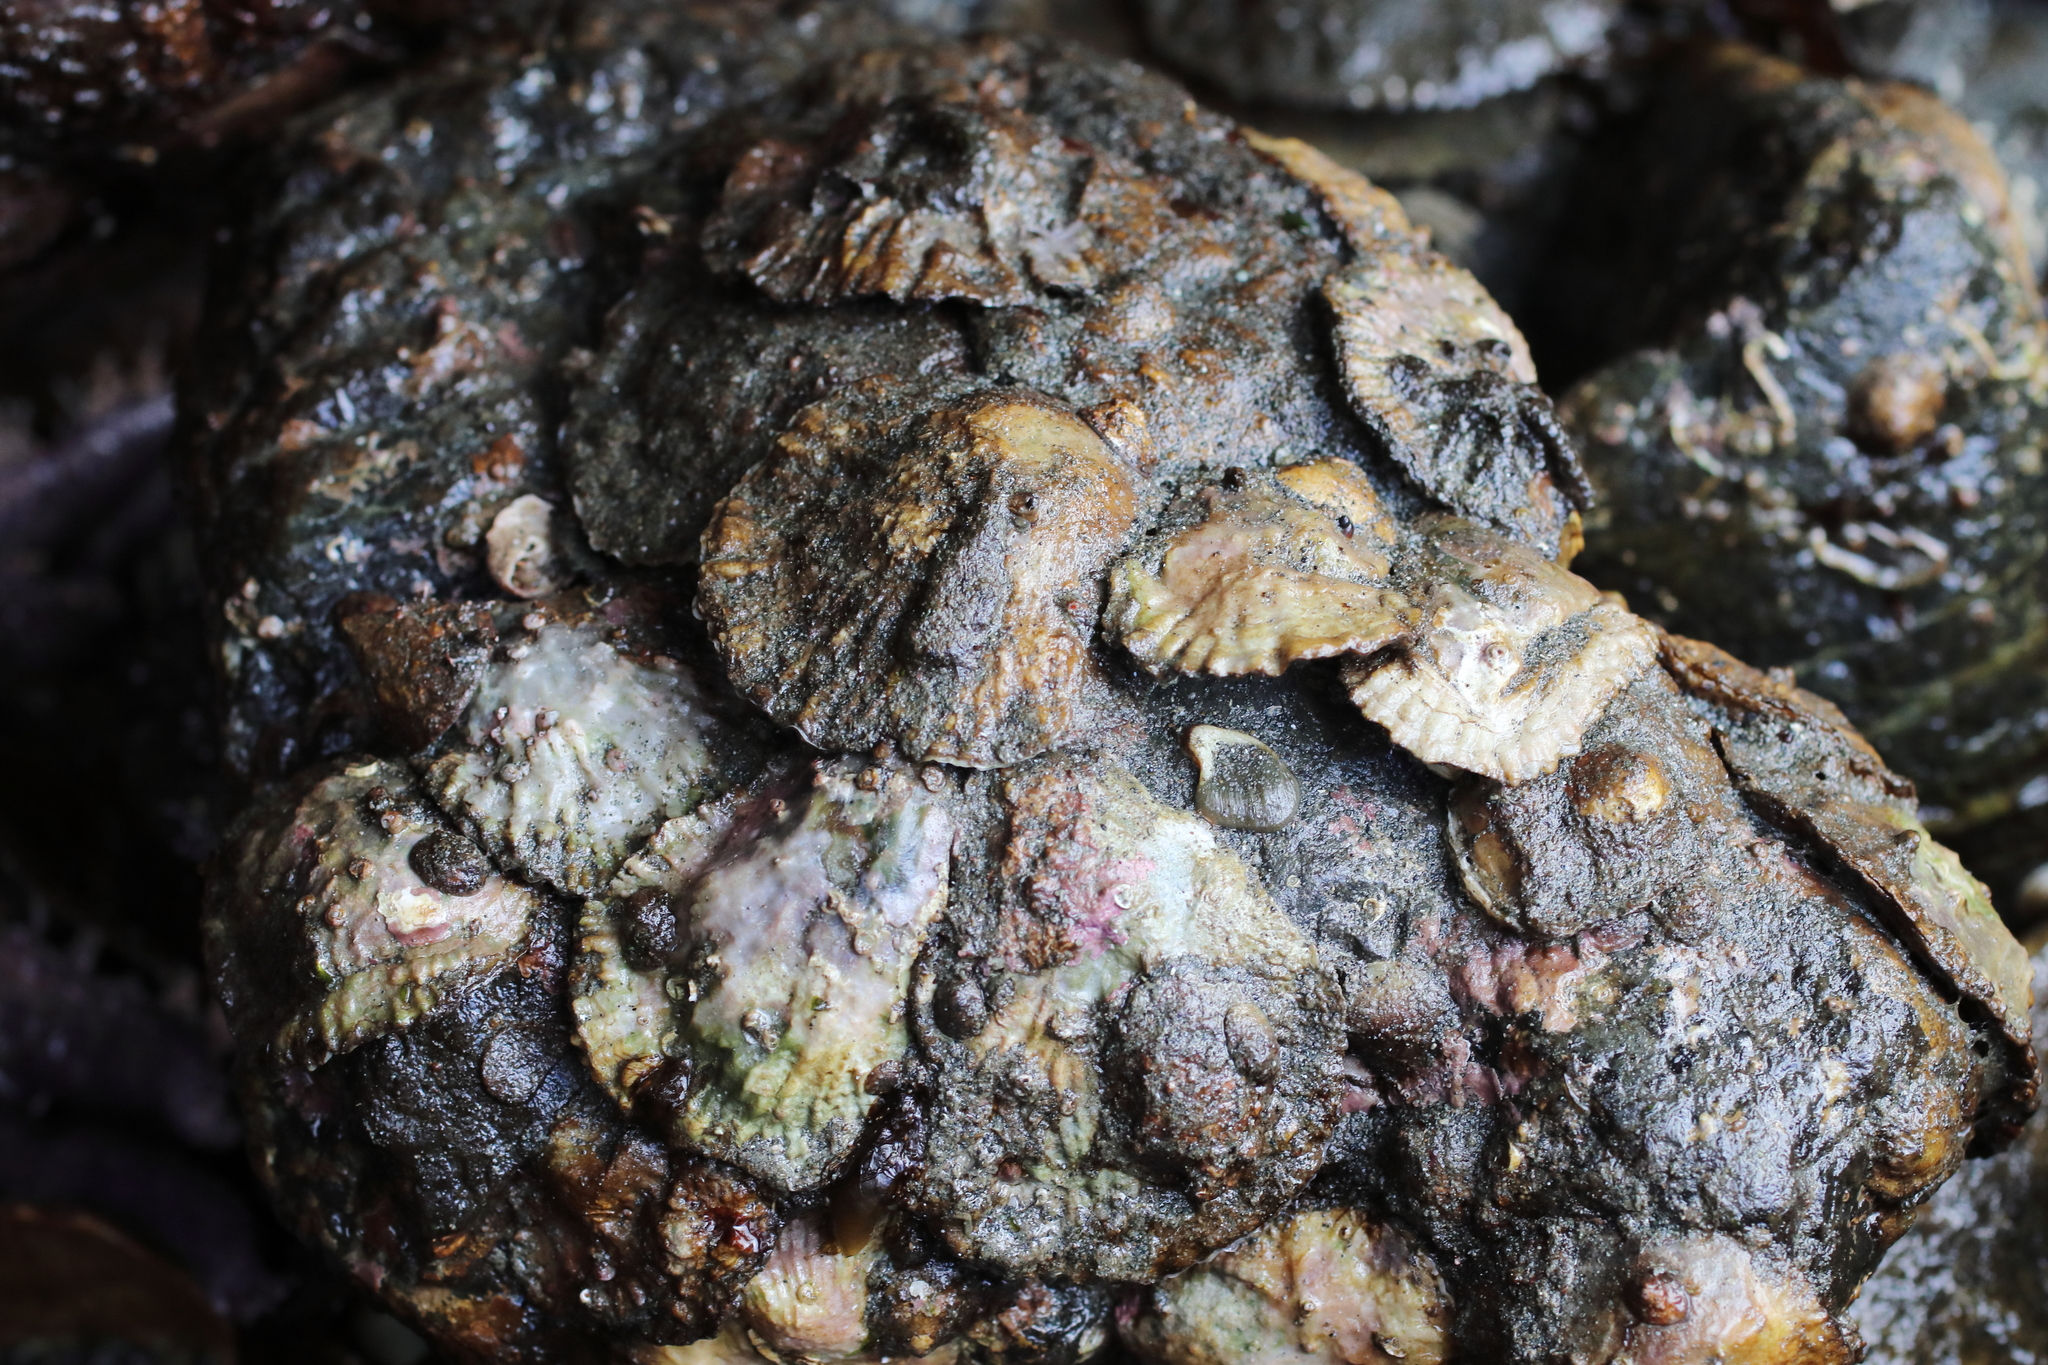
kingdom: Animalia
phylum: Mollusca
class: Bivalvia
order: Pectinida
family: Anomiidae
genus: Pododesmus
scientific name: Pododesmus macrochisma
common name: Alaska jingle
